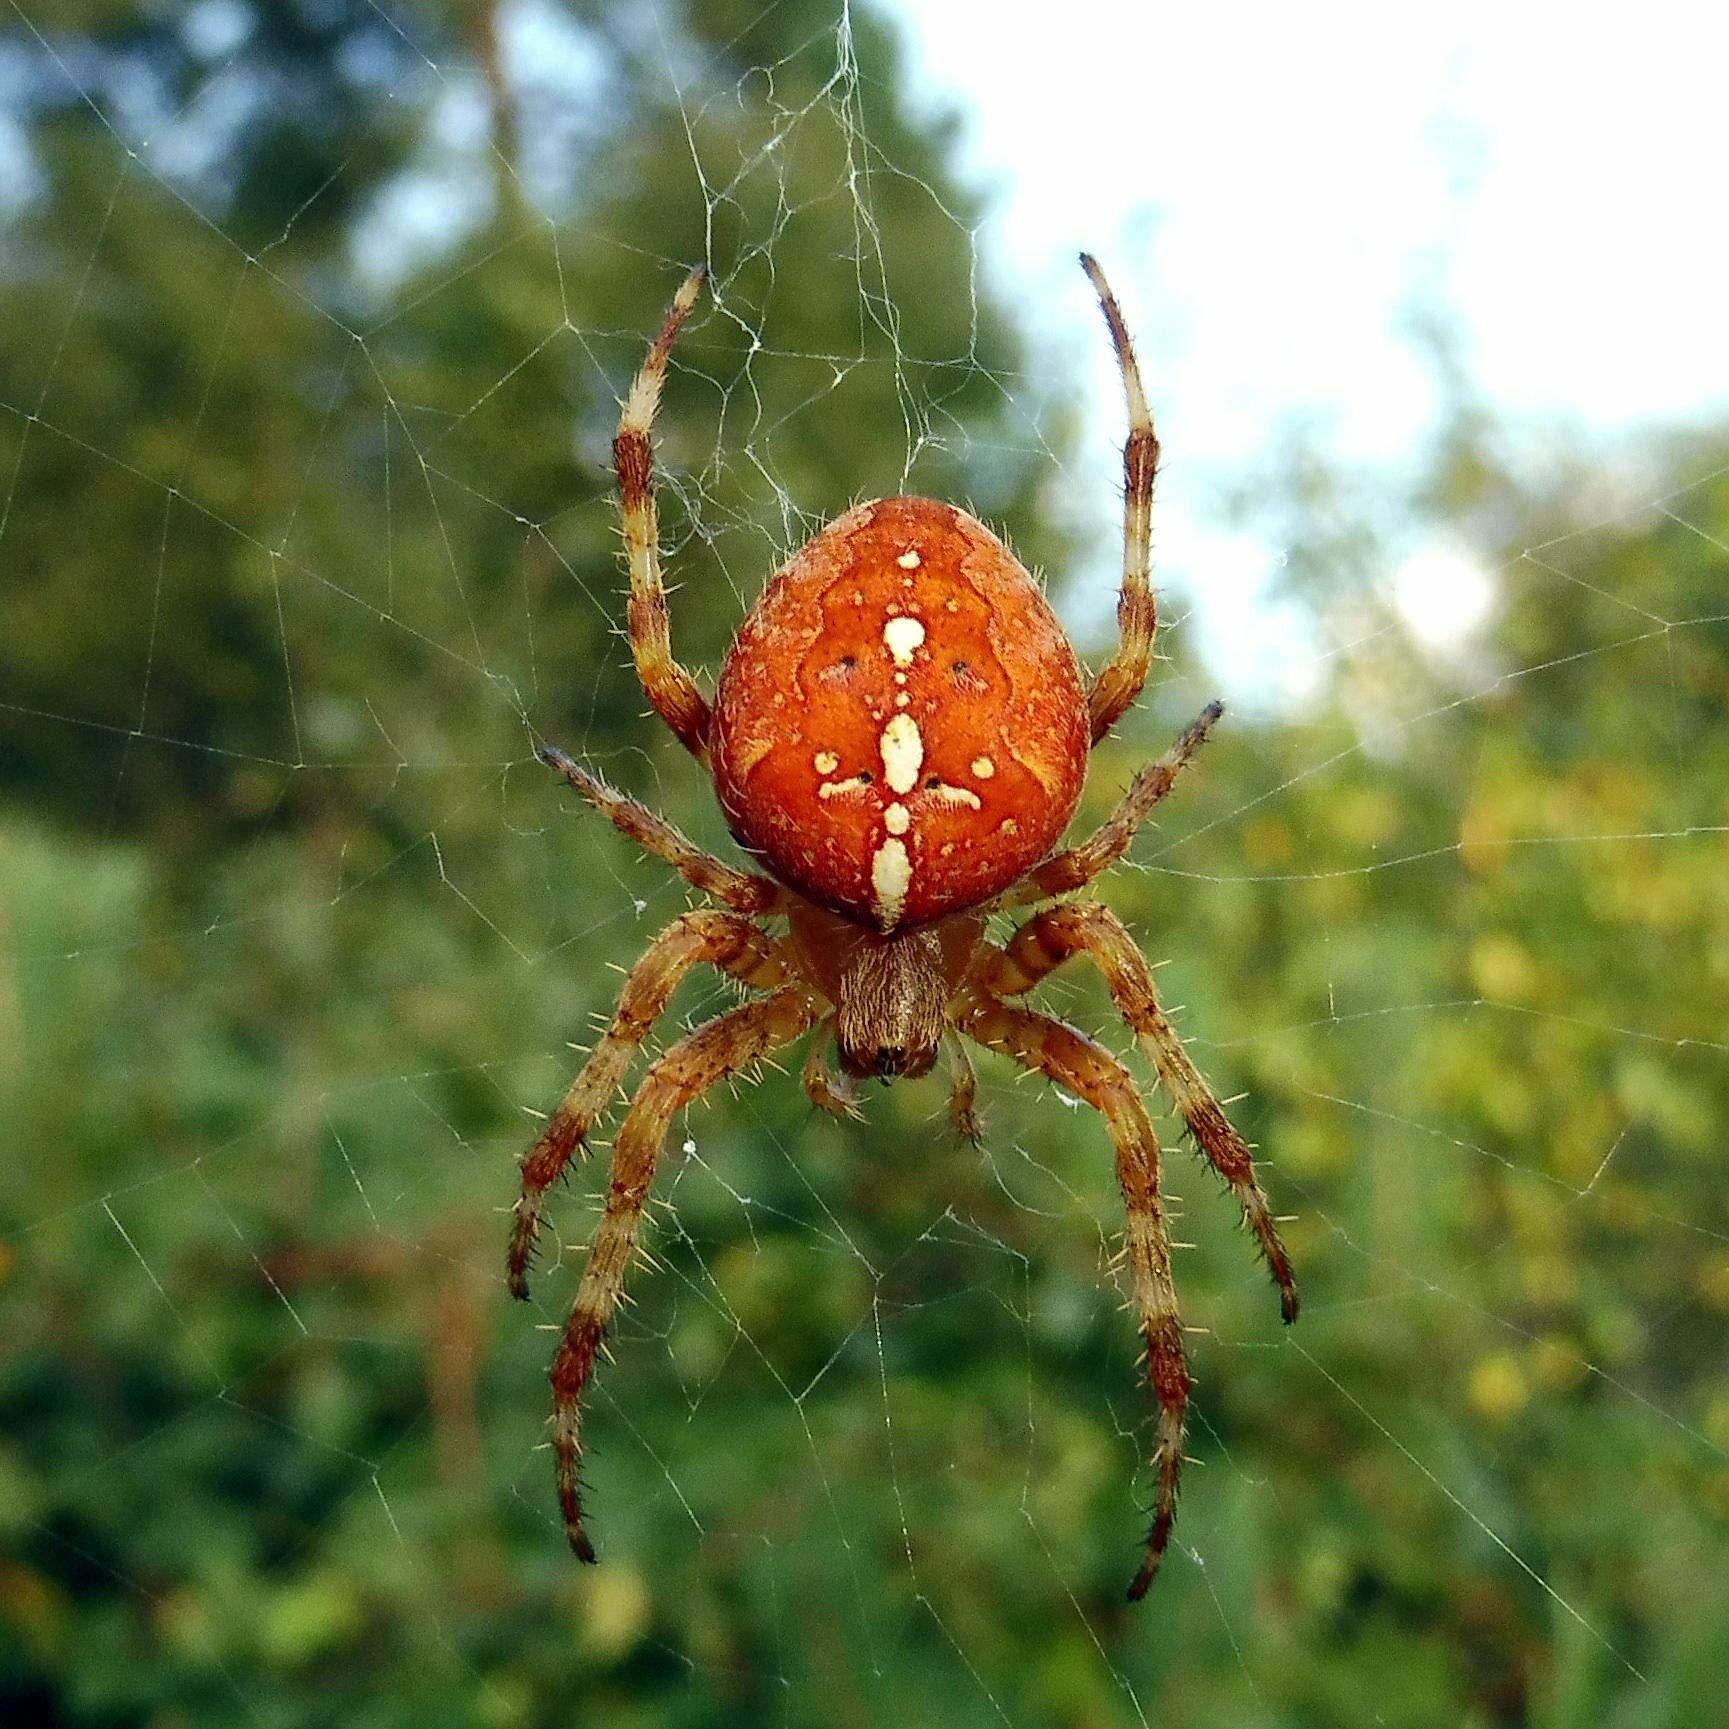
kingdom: Animalia
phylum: Arthropoda
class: Arachnida
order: Araneae
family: Araneidae
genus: Araneus
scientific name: Araneus diadematus
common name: Cross orbweaver
